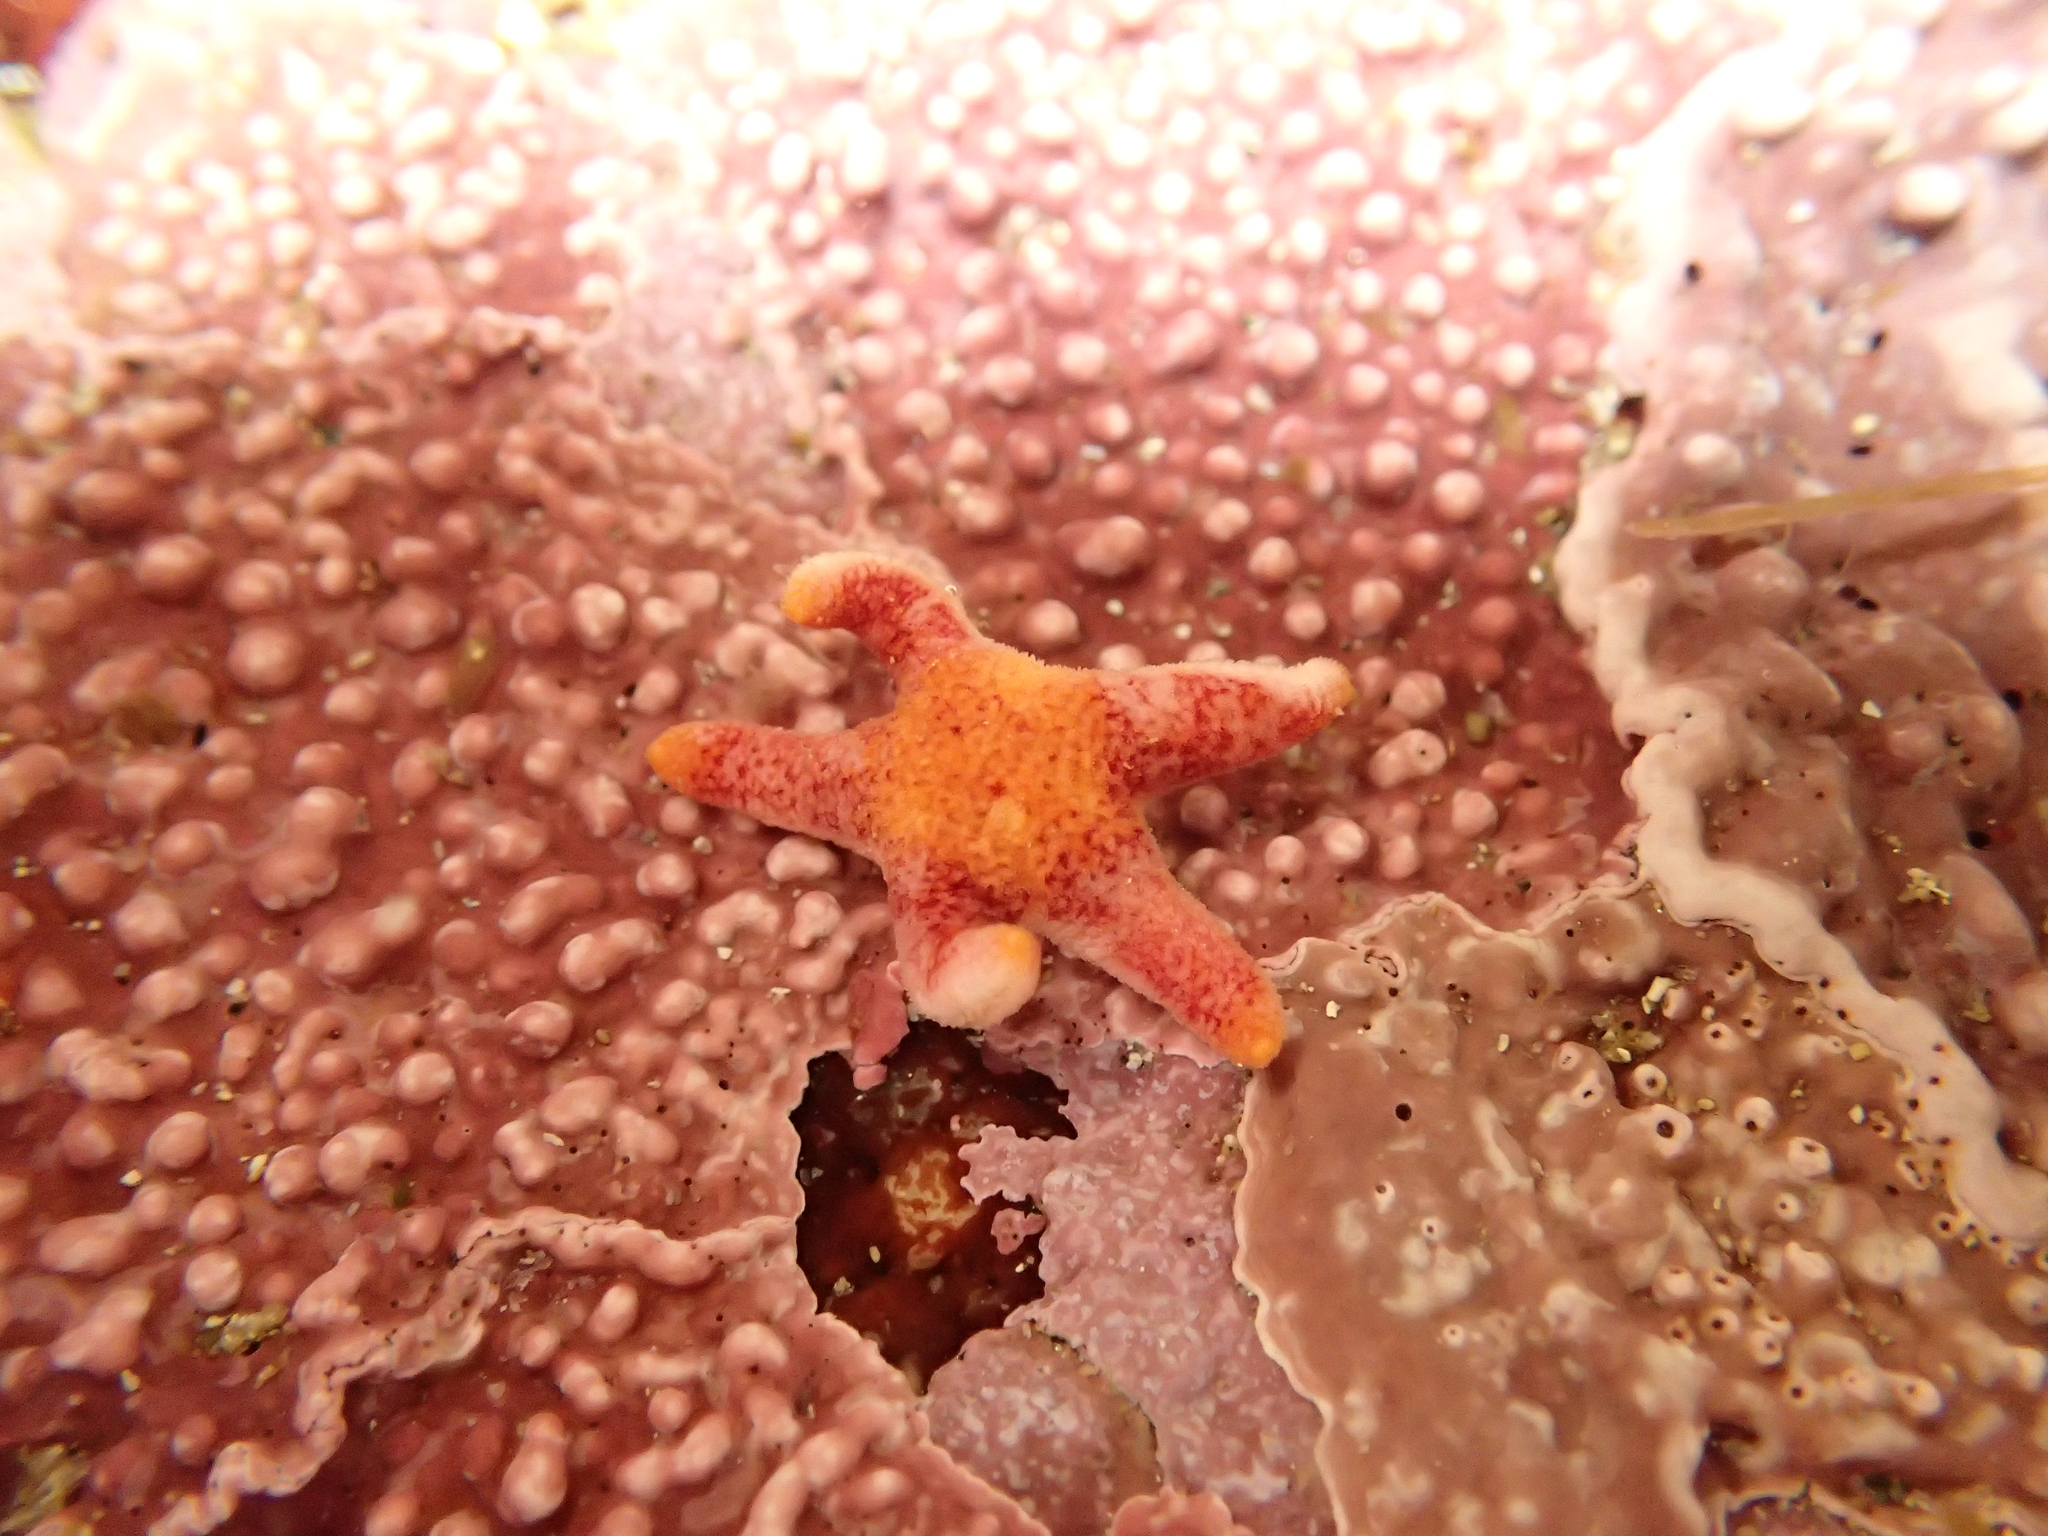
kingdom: Animalia
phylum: Echinodermata
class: Asteroidea
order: Spinulosida
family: Echinasteridae
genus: Henricia
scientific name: Henricia pumila
